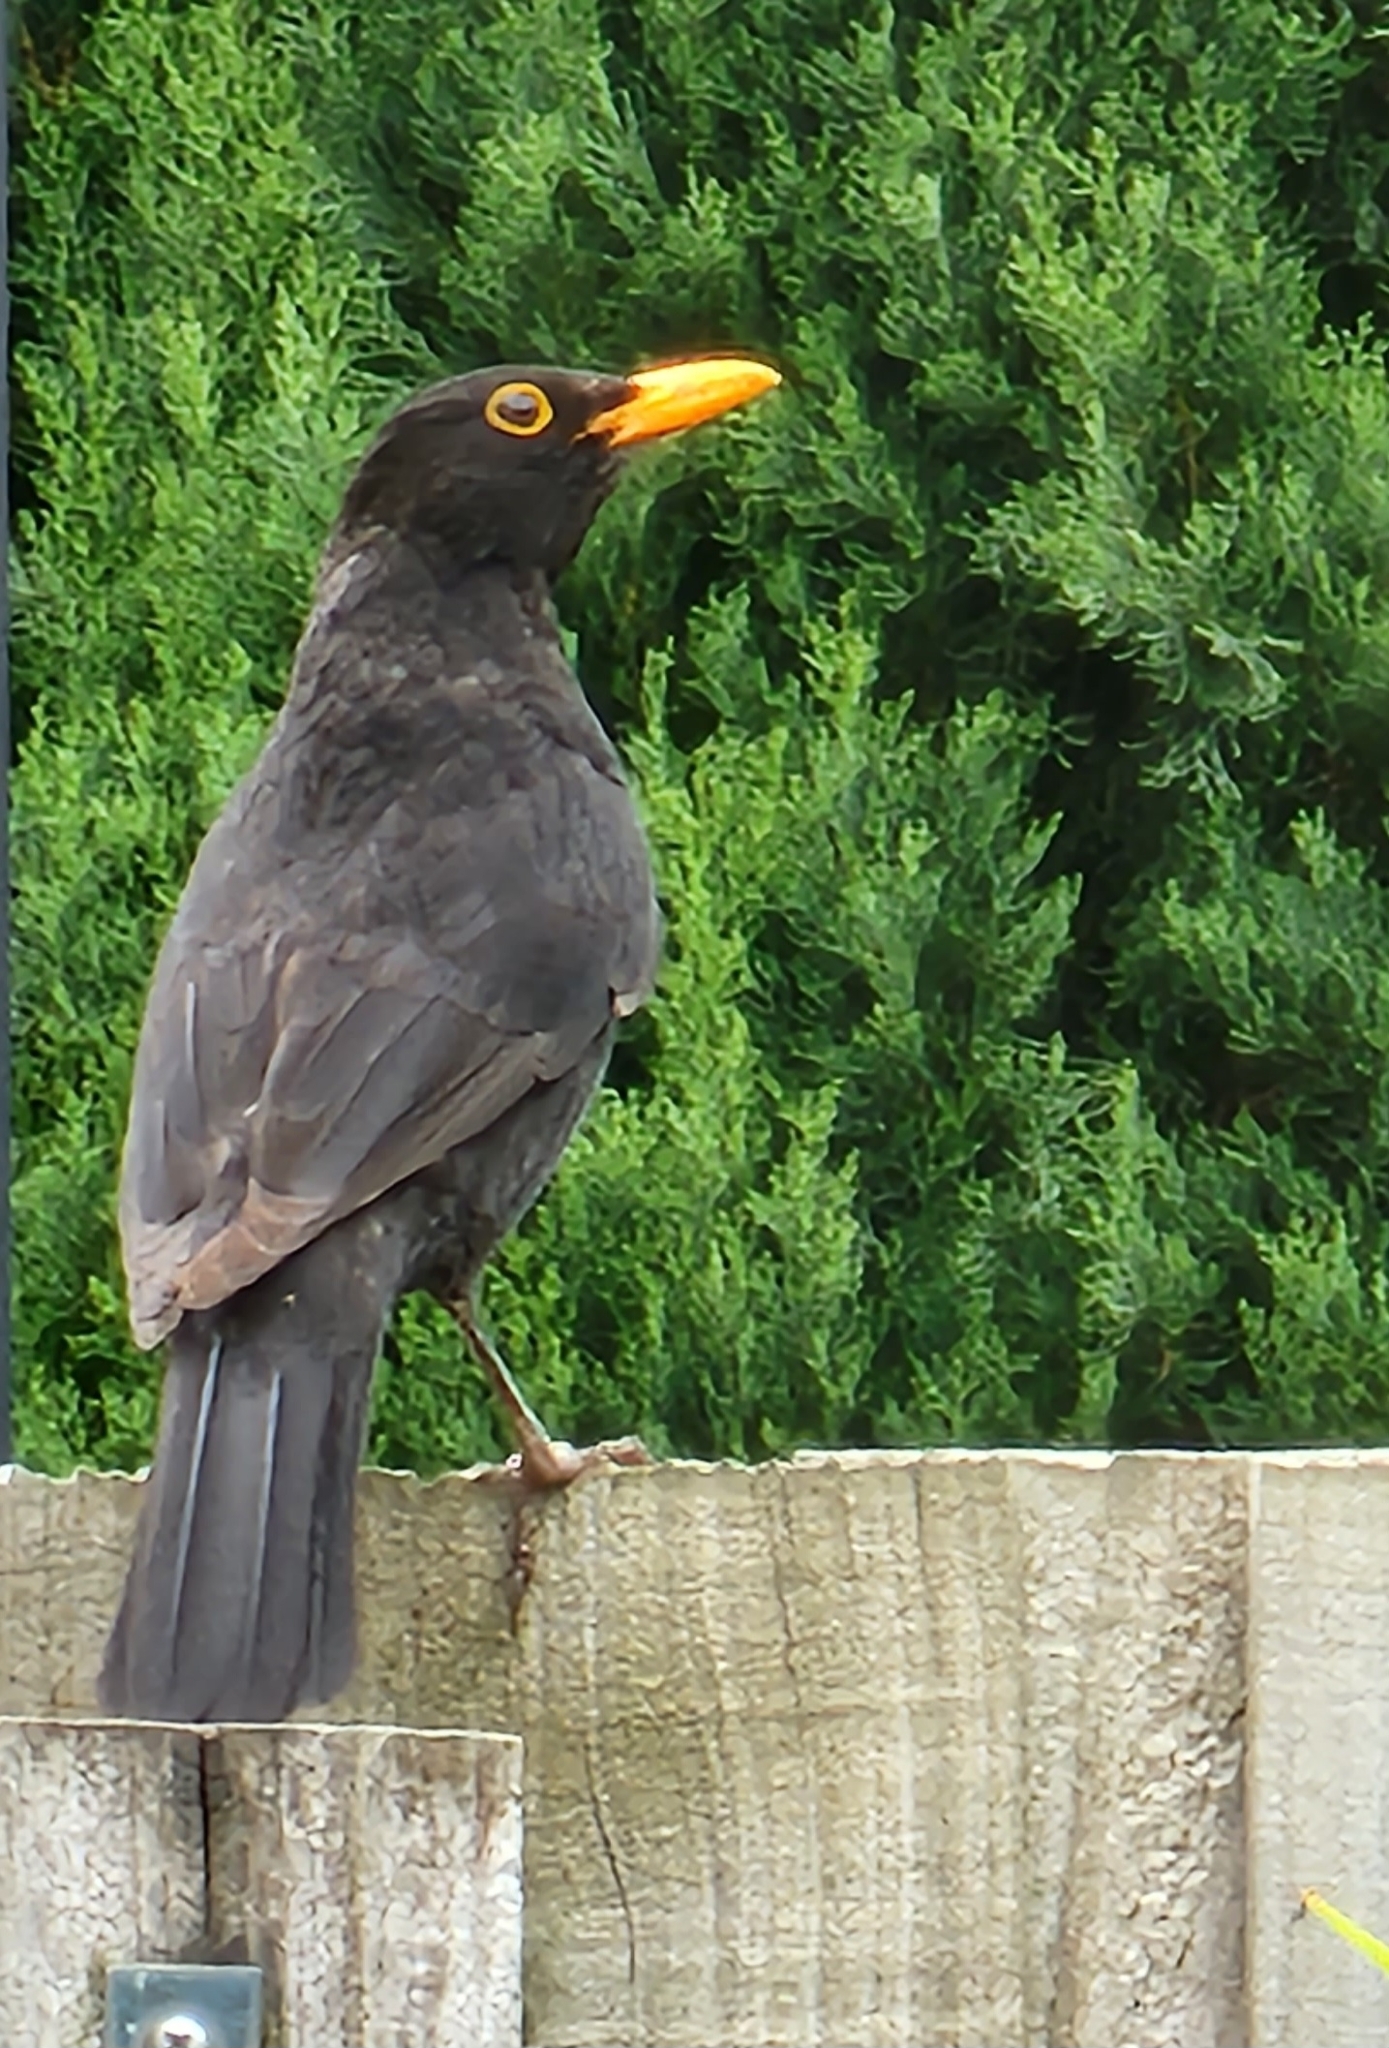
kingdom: Animalia
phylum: Chordata
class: Aves
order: Passeriformes
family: Turdidae
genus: Turdus
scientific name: Turdus merula
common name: Common blackbird
